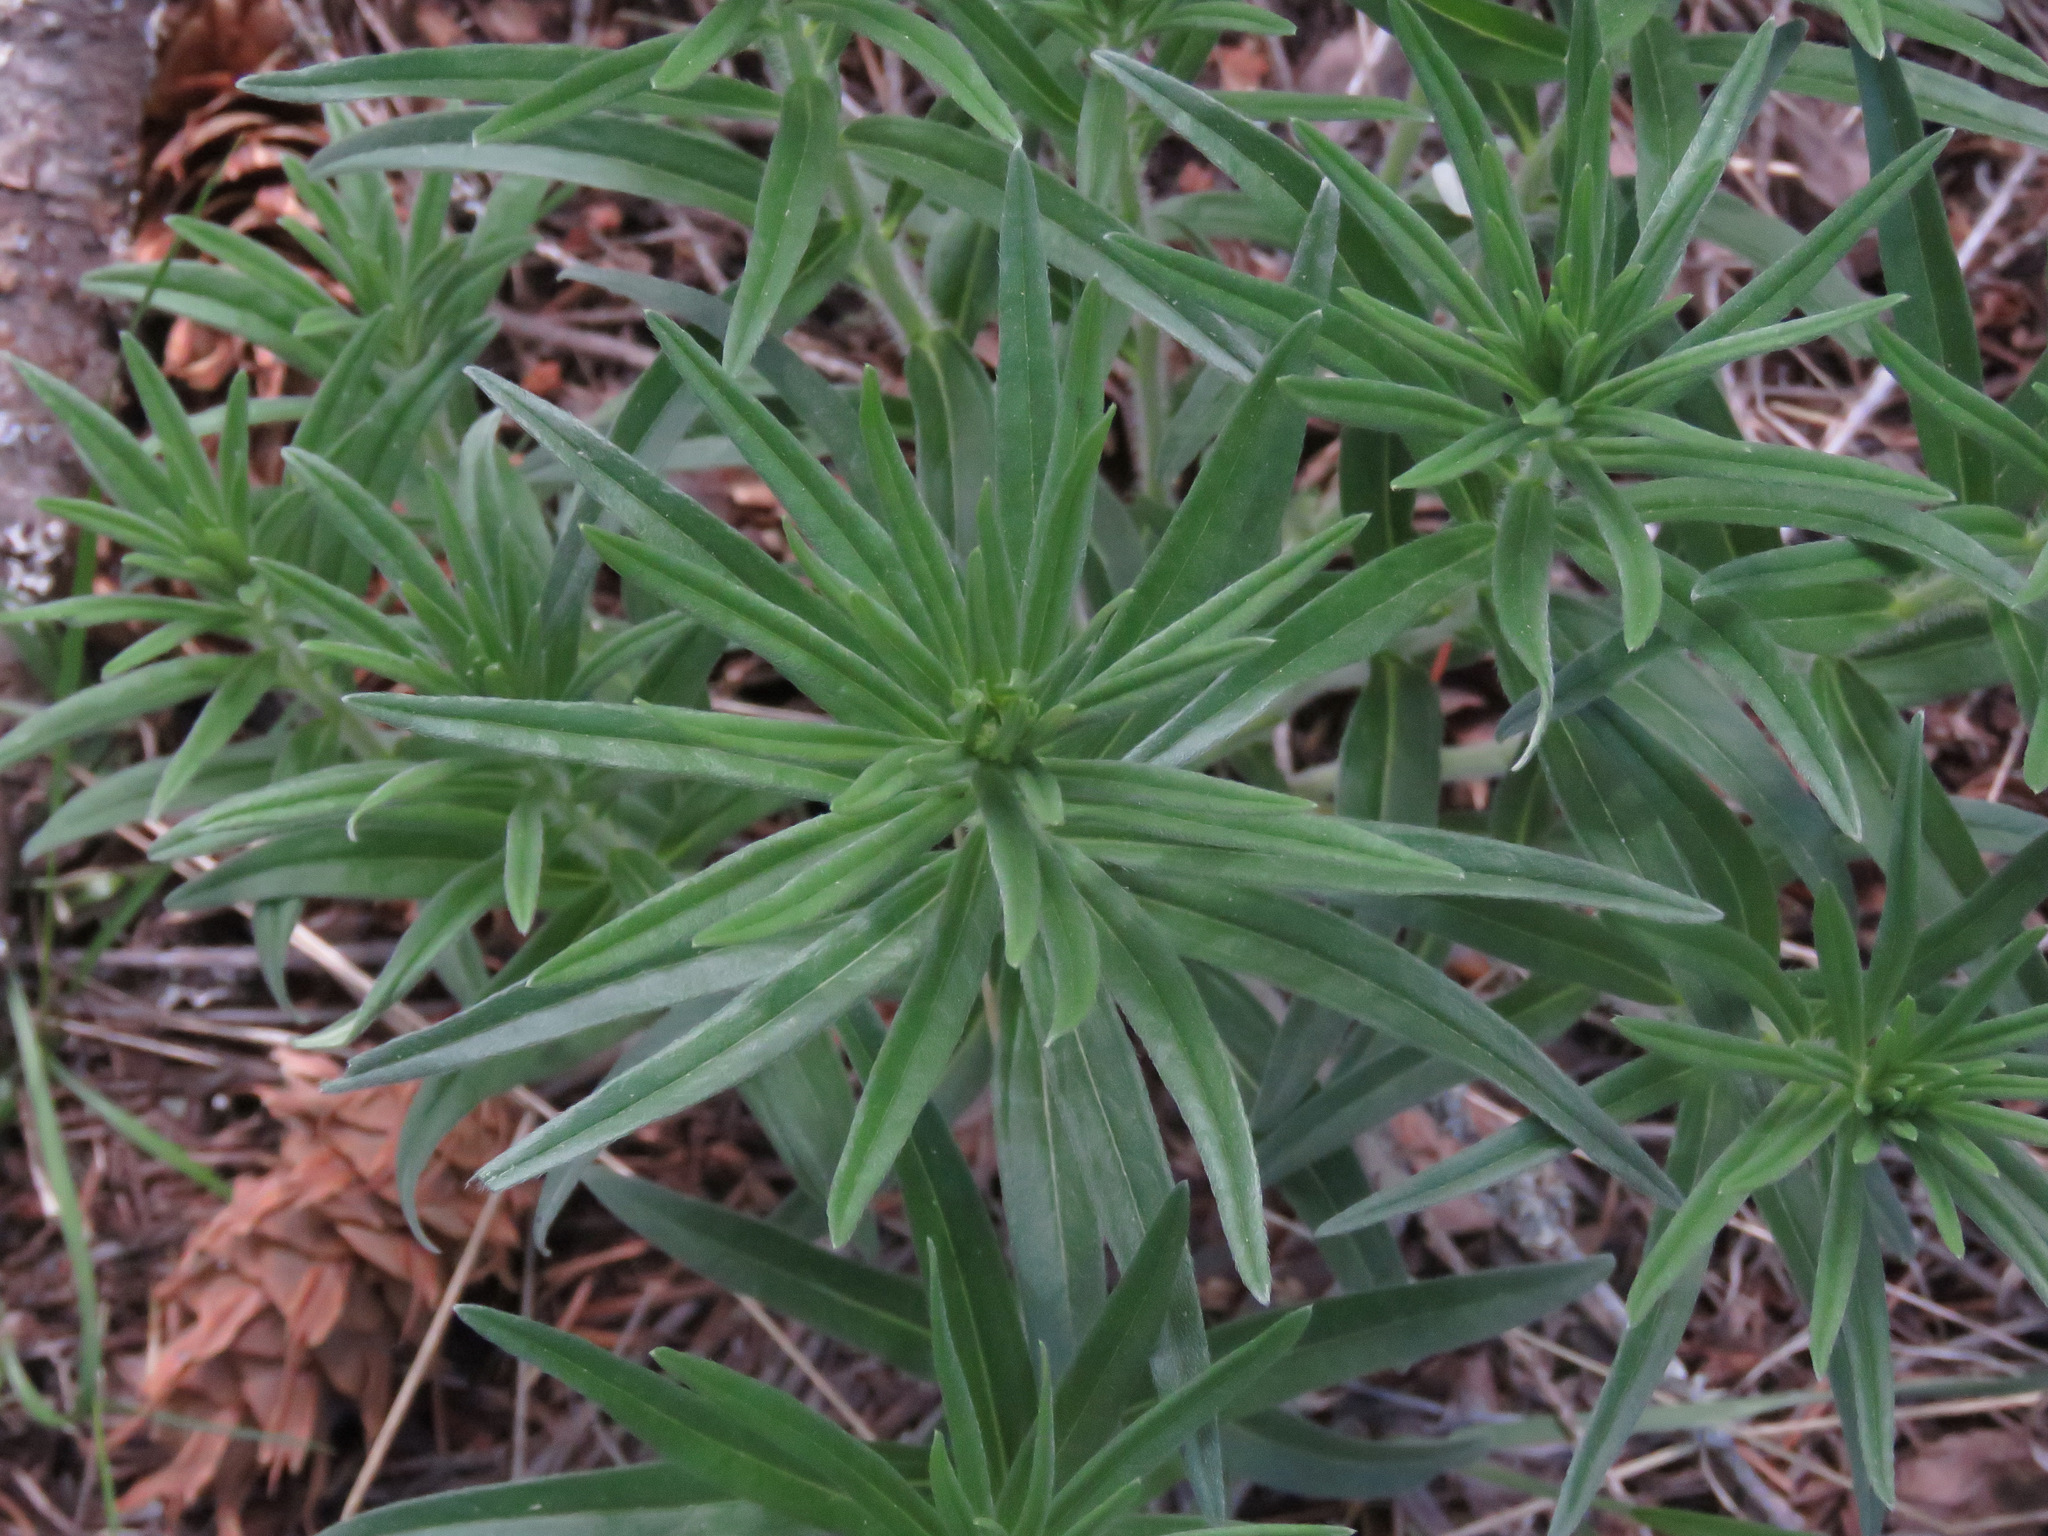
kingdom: Plantae
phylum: Tracheophyta
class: Magnoliopsida
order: Boraginales
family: Boraginaceae
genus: Lithospermum
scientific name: Lithospermum ruderale
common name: Western gromwell
